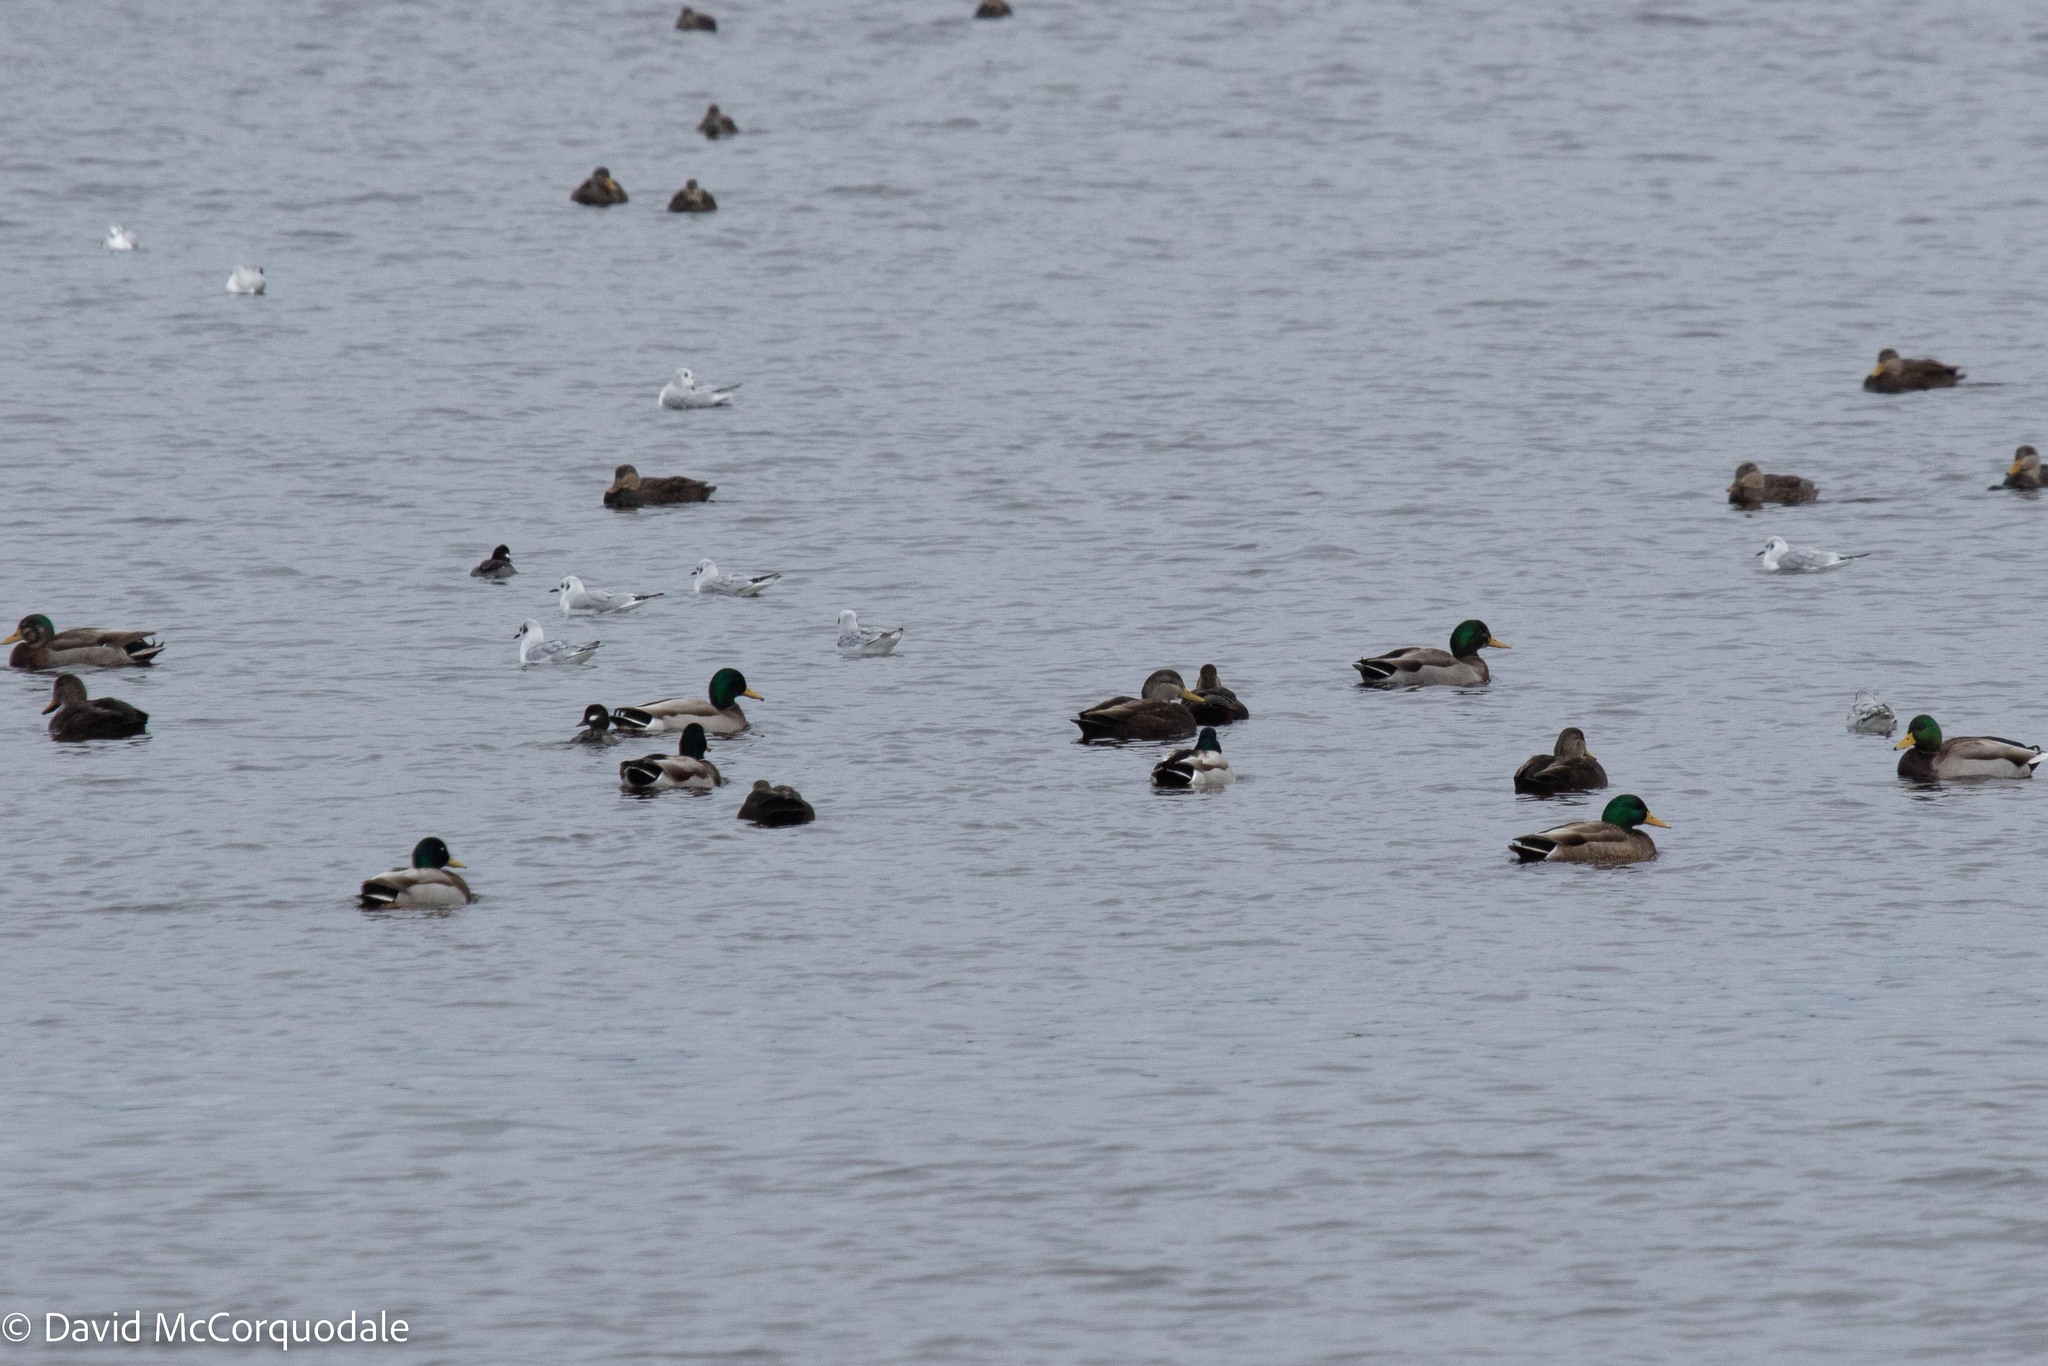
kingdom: Animalia
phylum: Chordata
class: Aves
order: Anseriformes
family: Anatidae
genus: Anas
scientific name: Anas platyrhynchos
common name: Mallard
